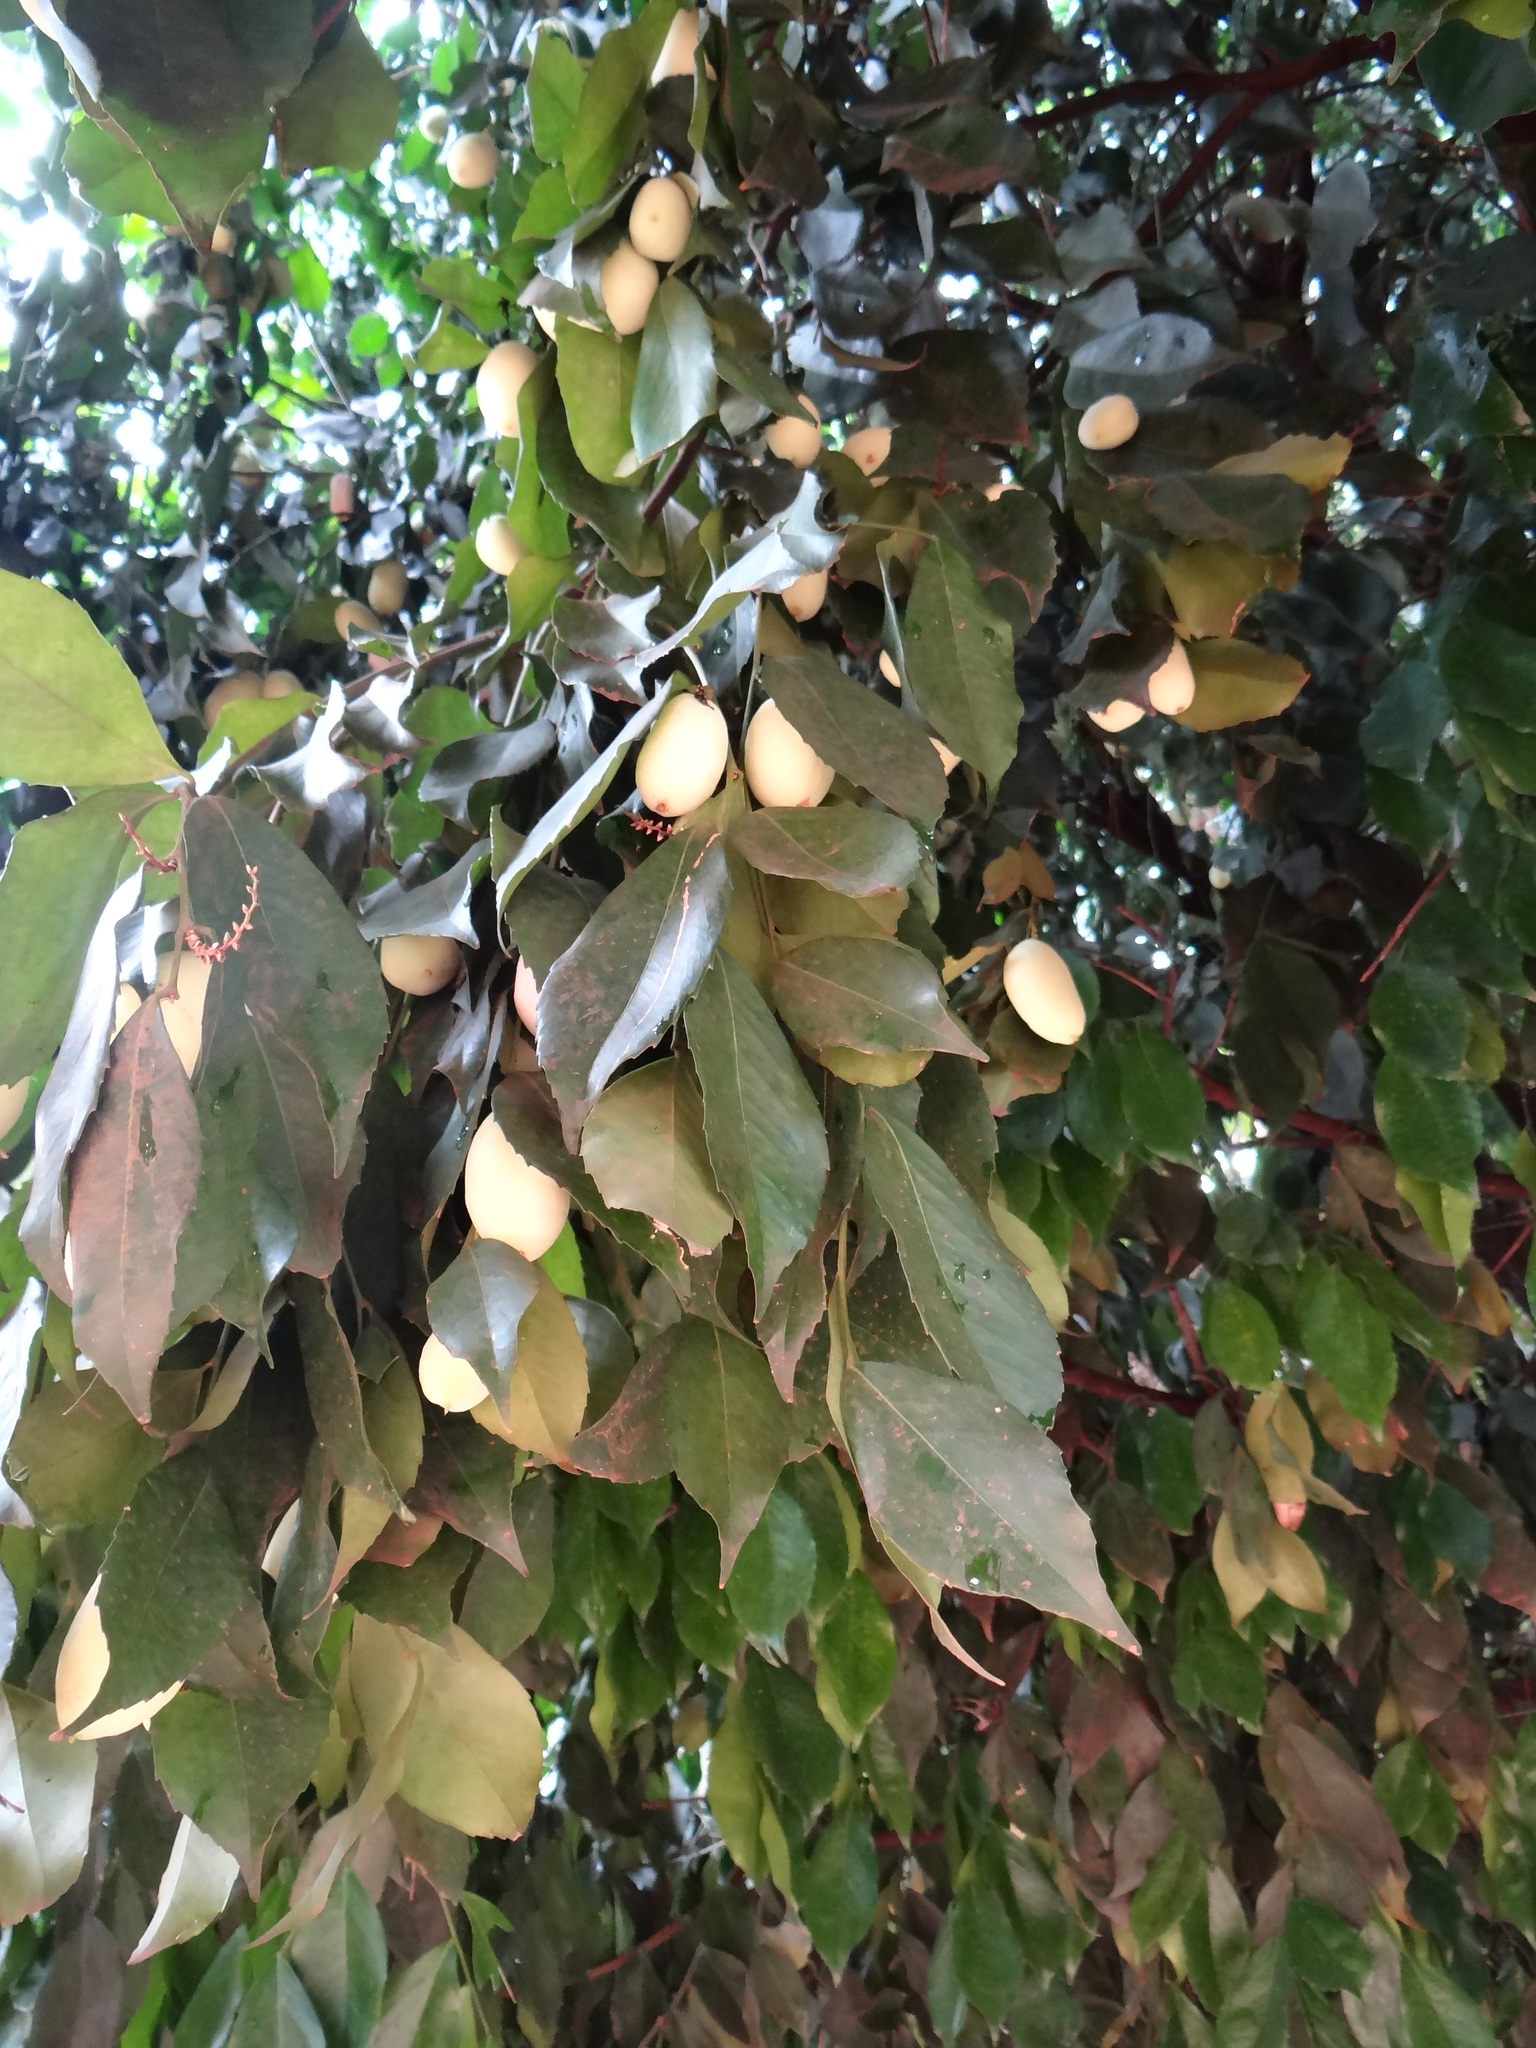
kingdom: Plantae
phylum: Tracheophyta
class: Magnoliopsida
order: Fabales
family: Fabaceae
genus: Lecointea
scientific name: Lecointea peruviana
